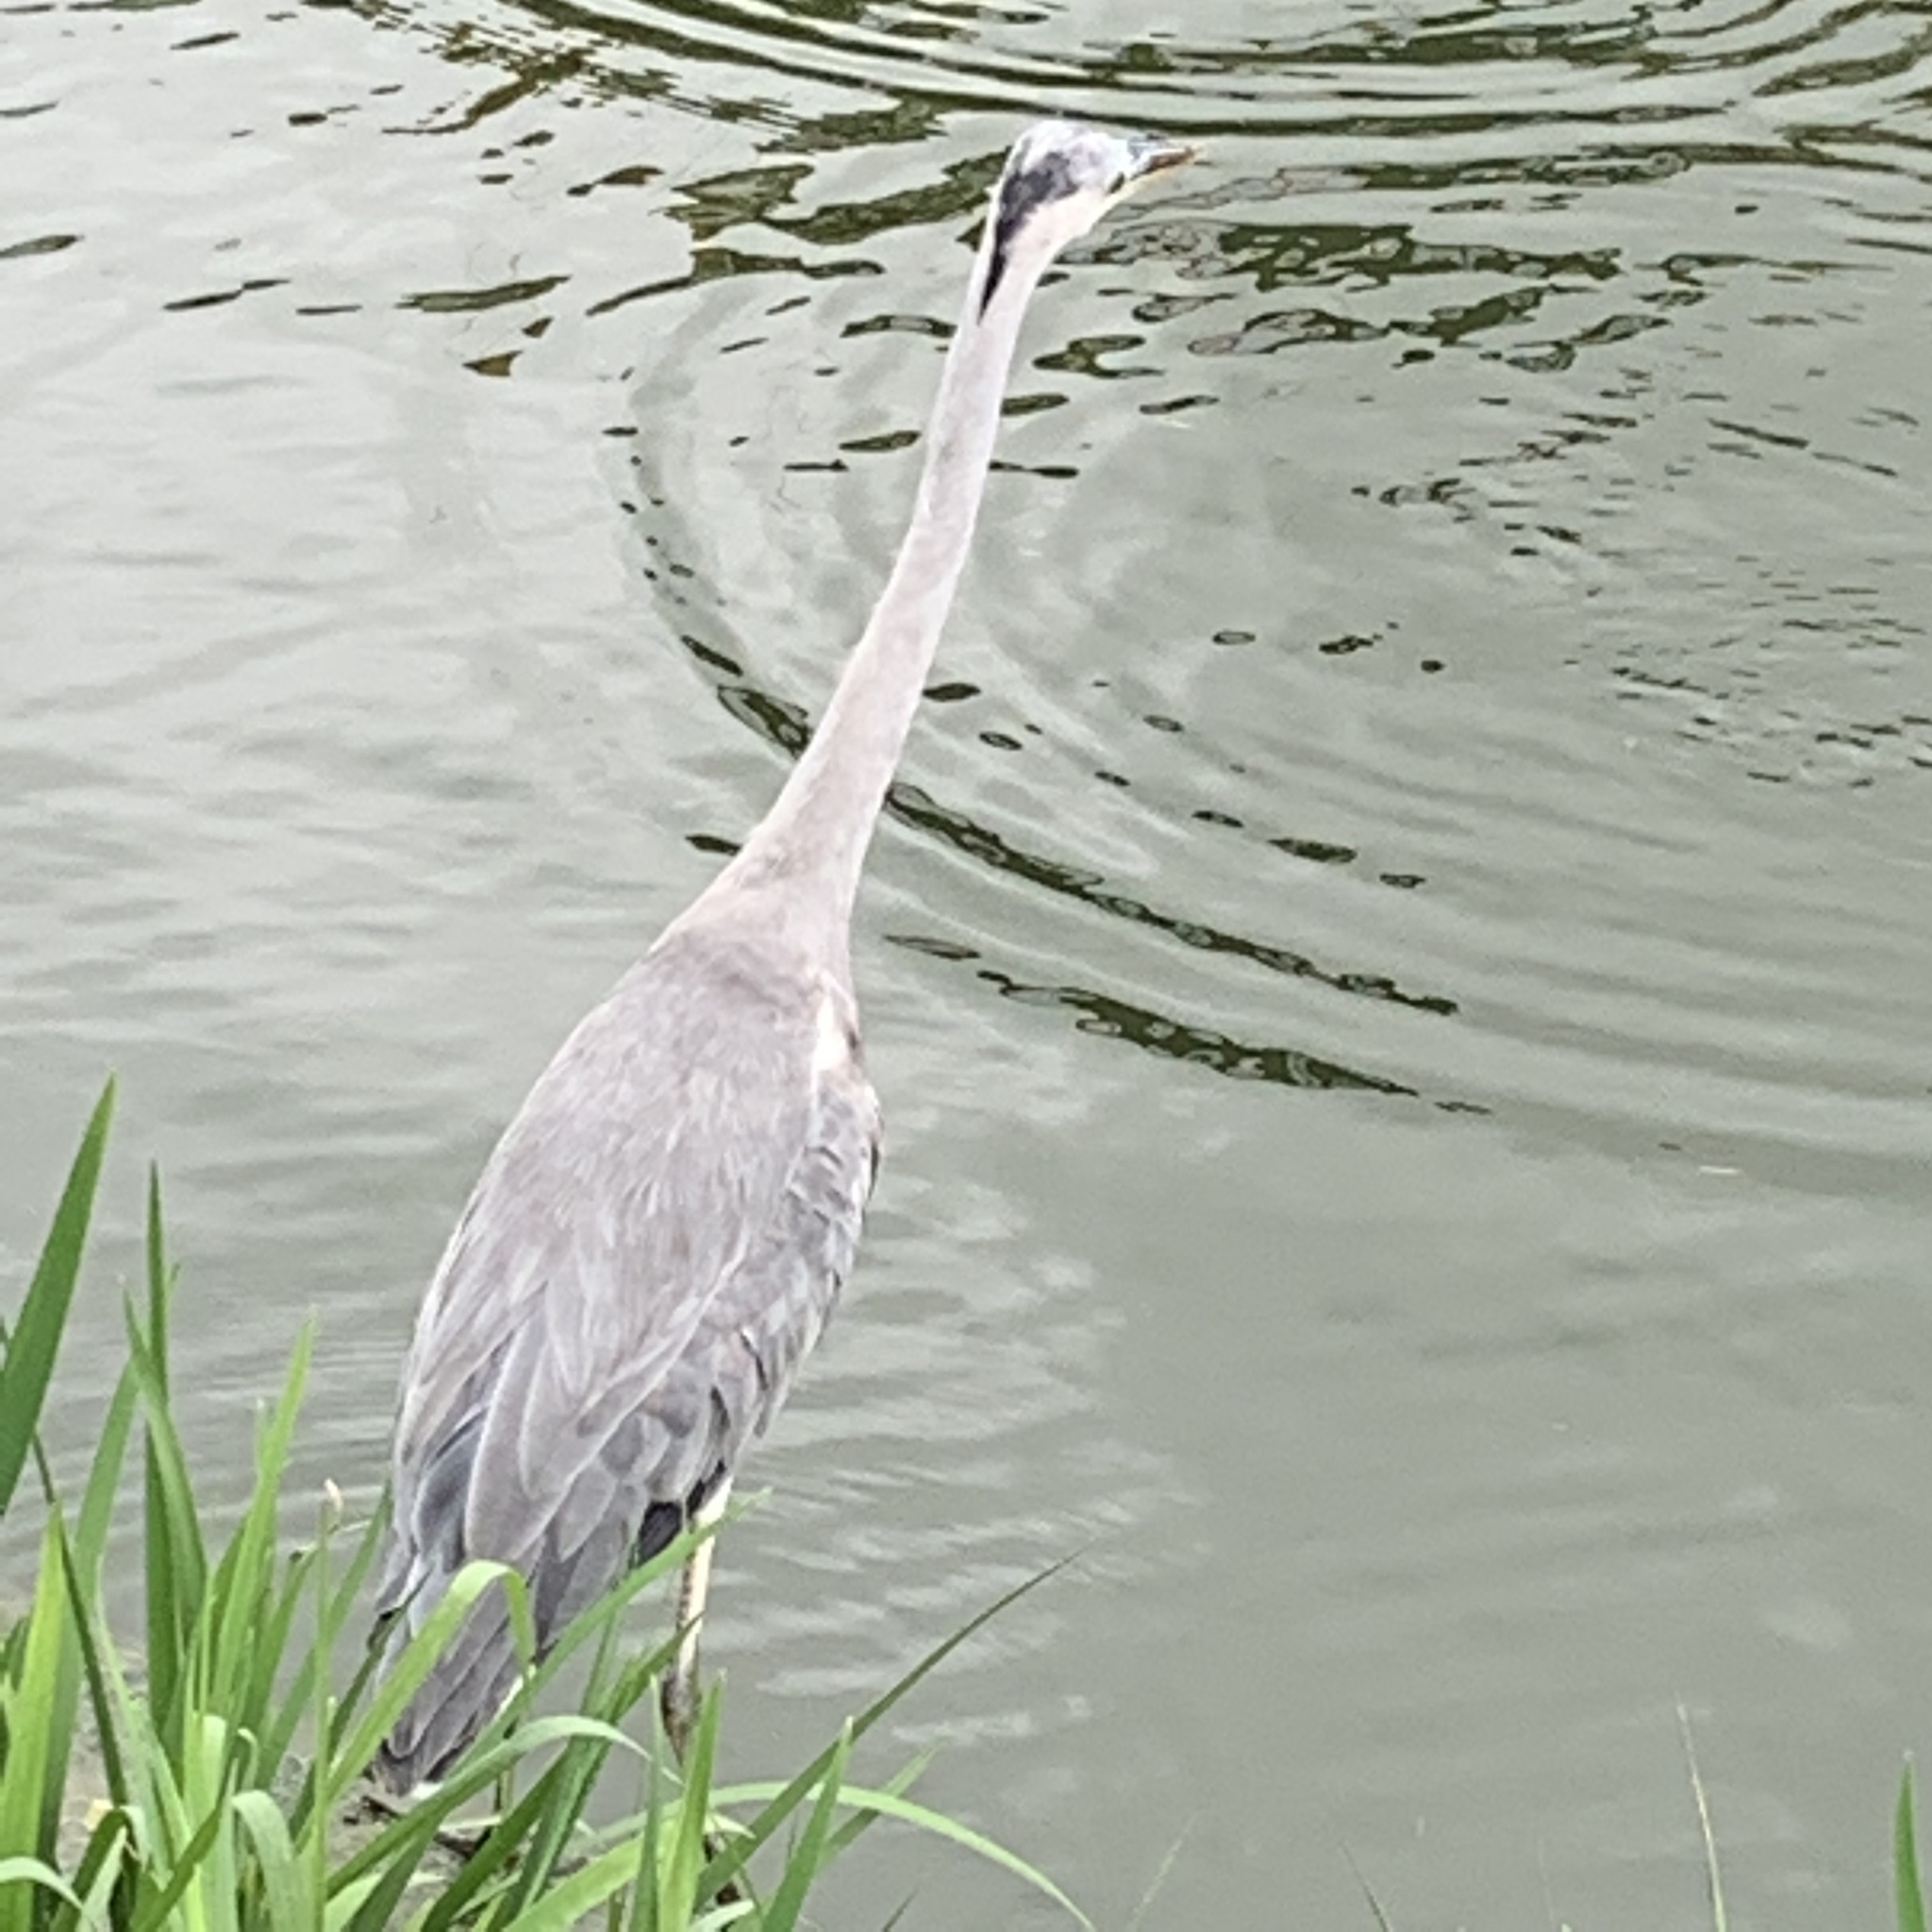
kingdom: Animalia
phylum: Chordata
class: Aves
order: Pelecaniformes
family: Ardeidae
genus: Ardea
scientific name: Ardea cinerea
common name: Grey heron
